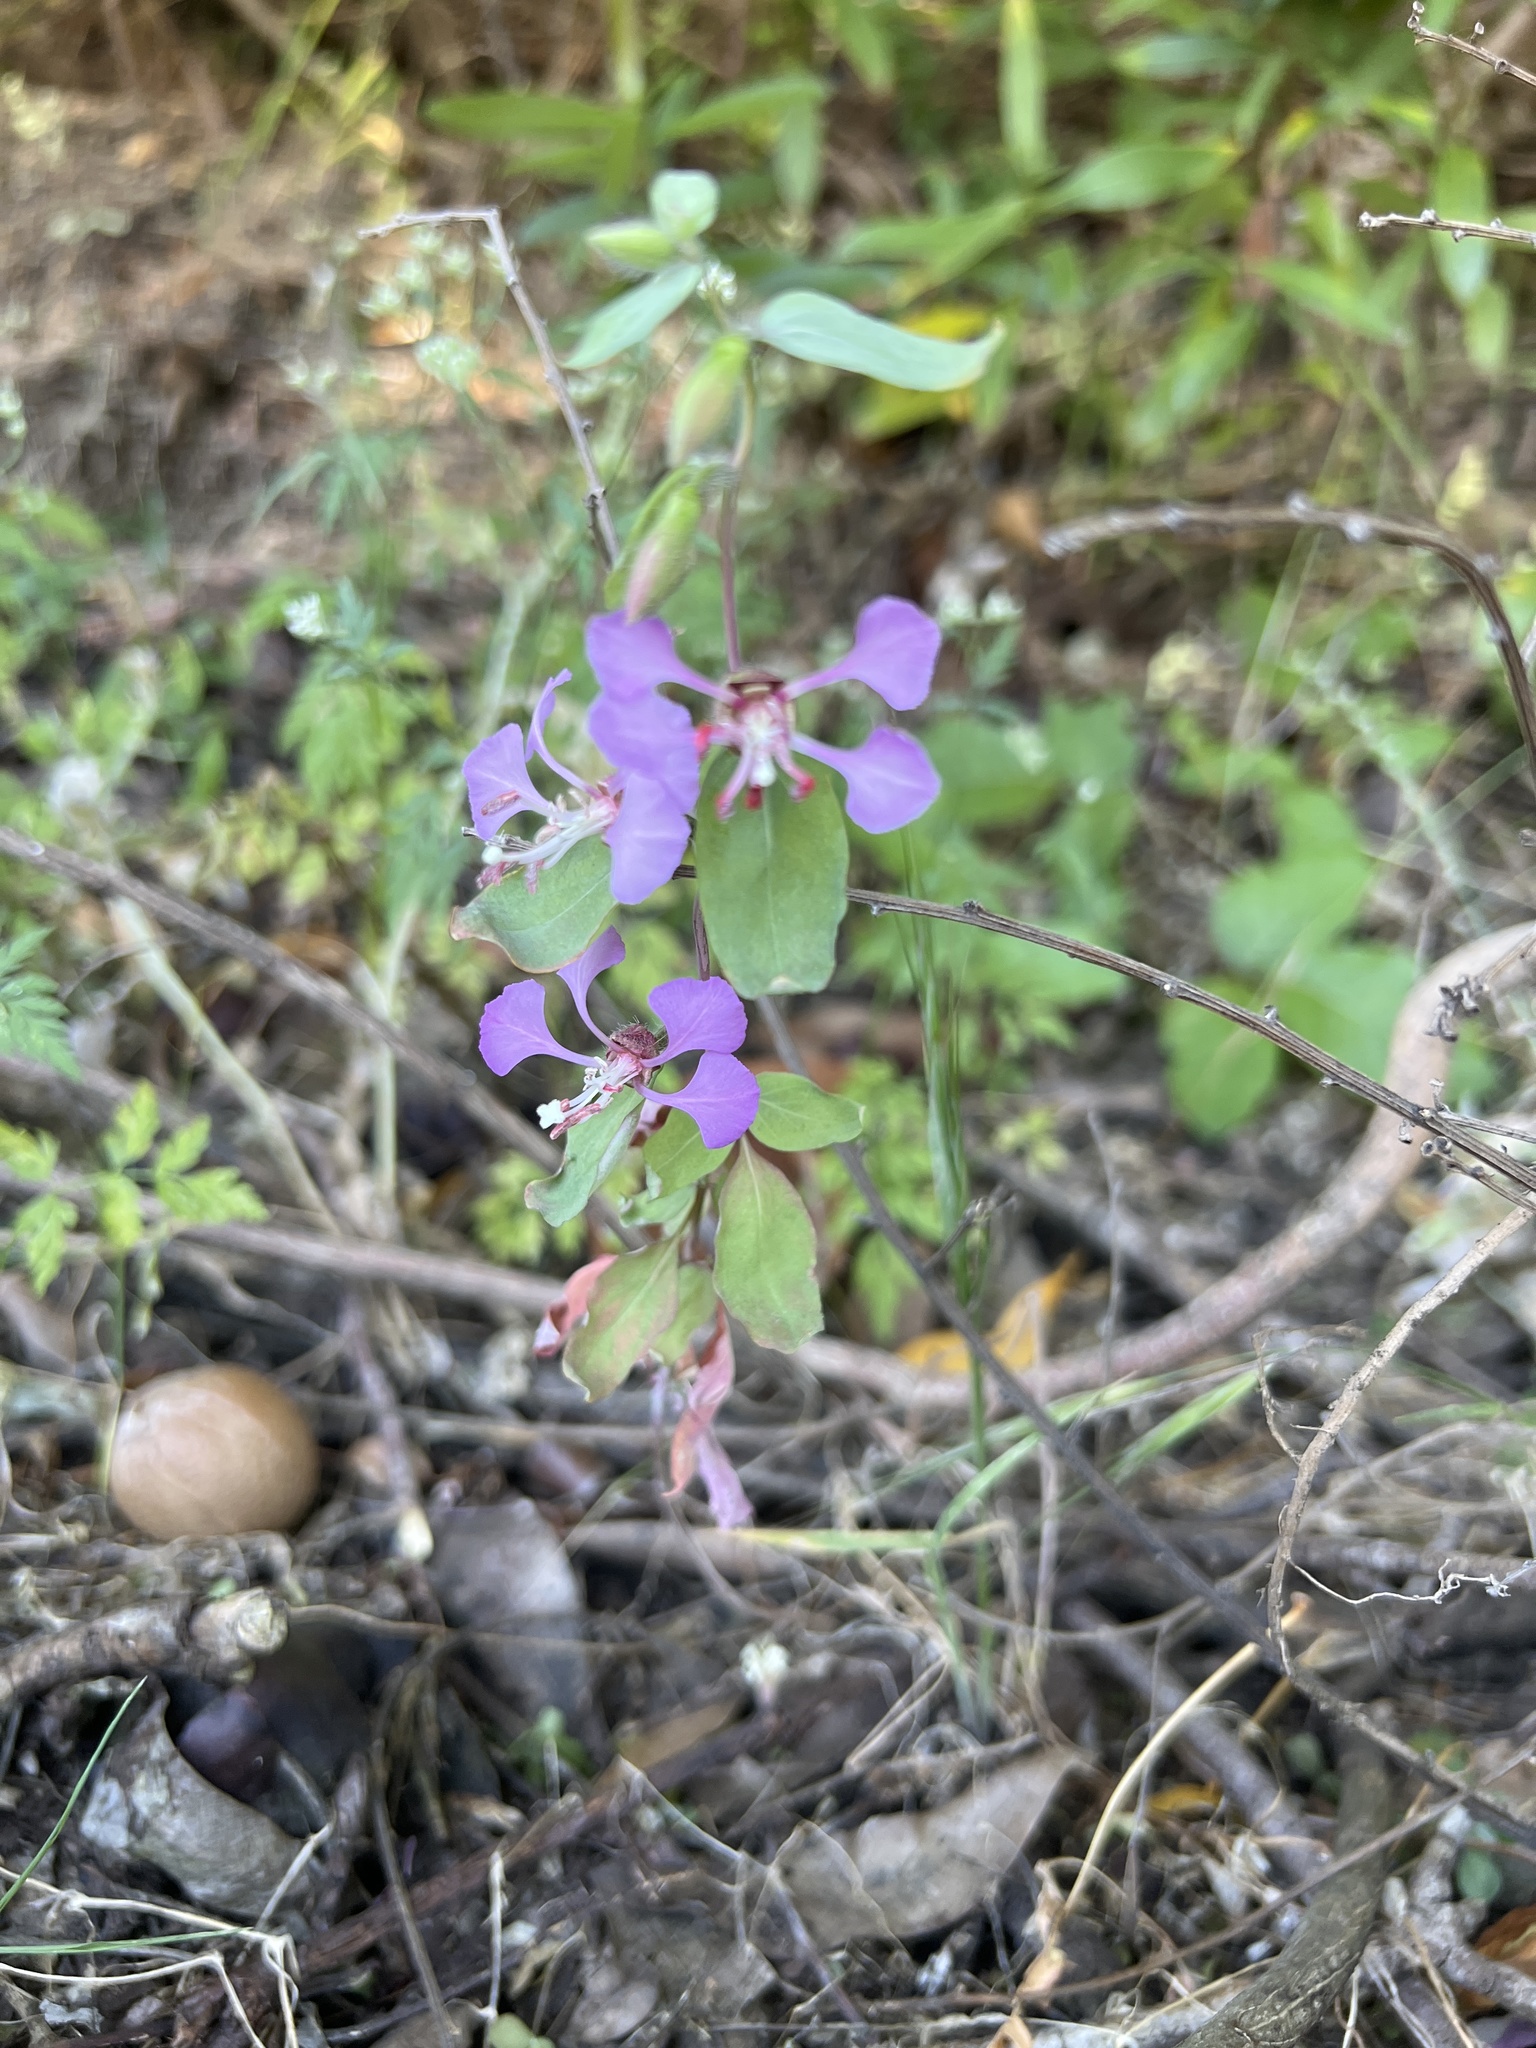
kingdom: Plantae
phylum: Tracheophyta
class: Magnoliopsida
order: Myrtales
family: Onagraceae
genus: Clarkia
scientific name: Clarkia unguiculata
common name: Clarkia
